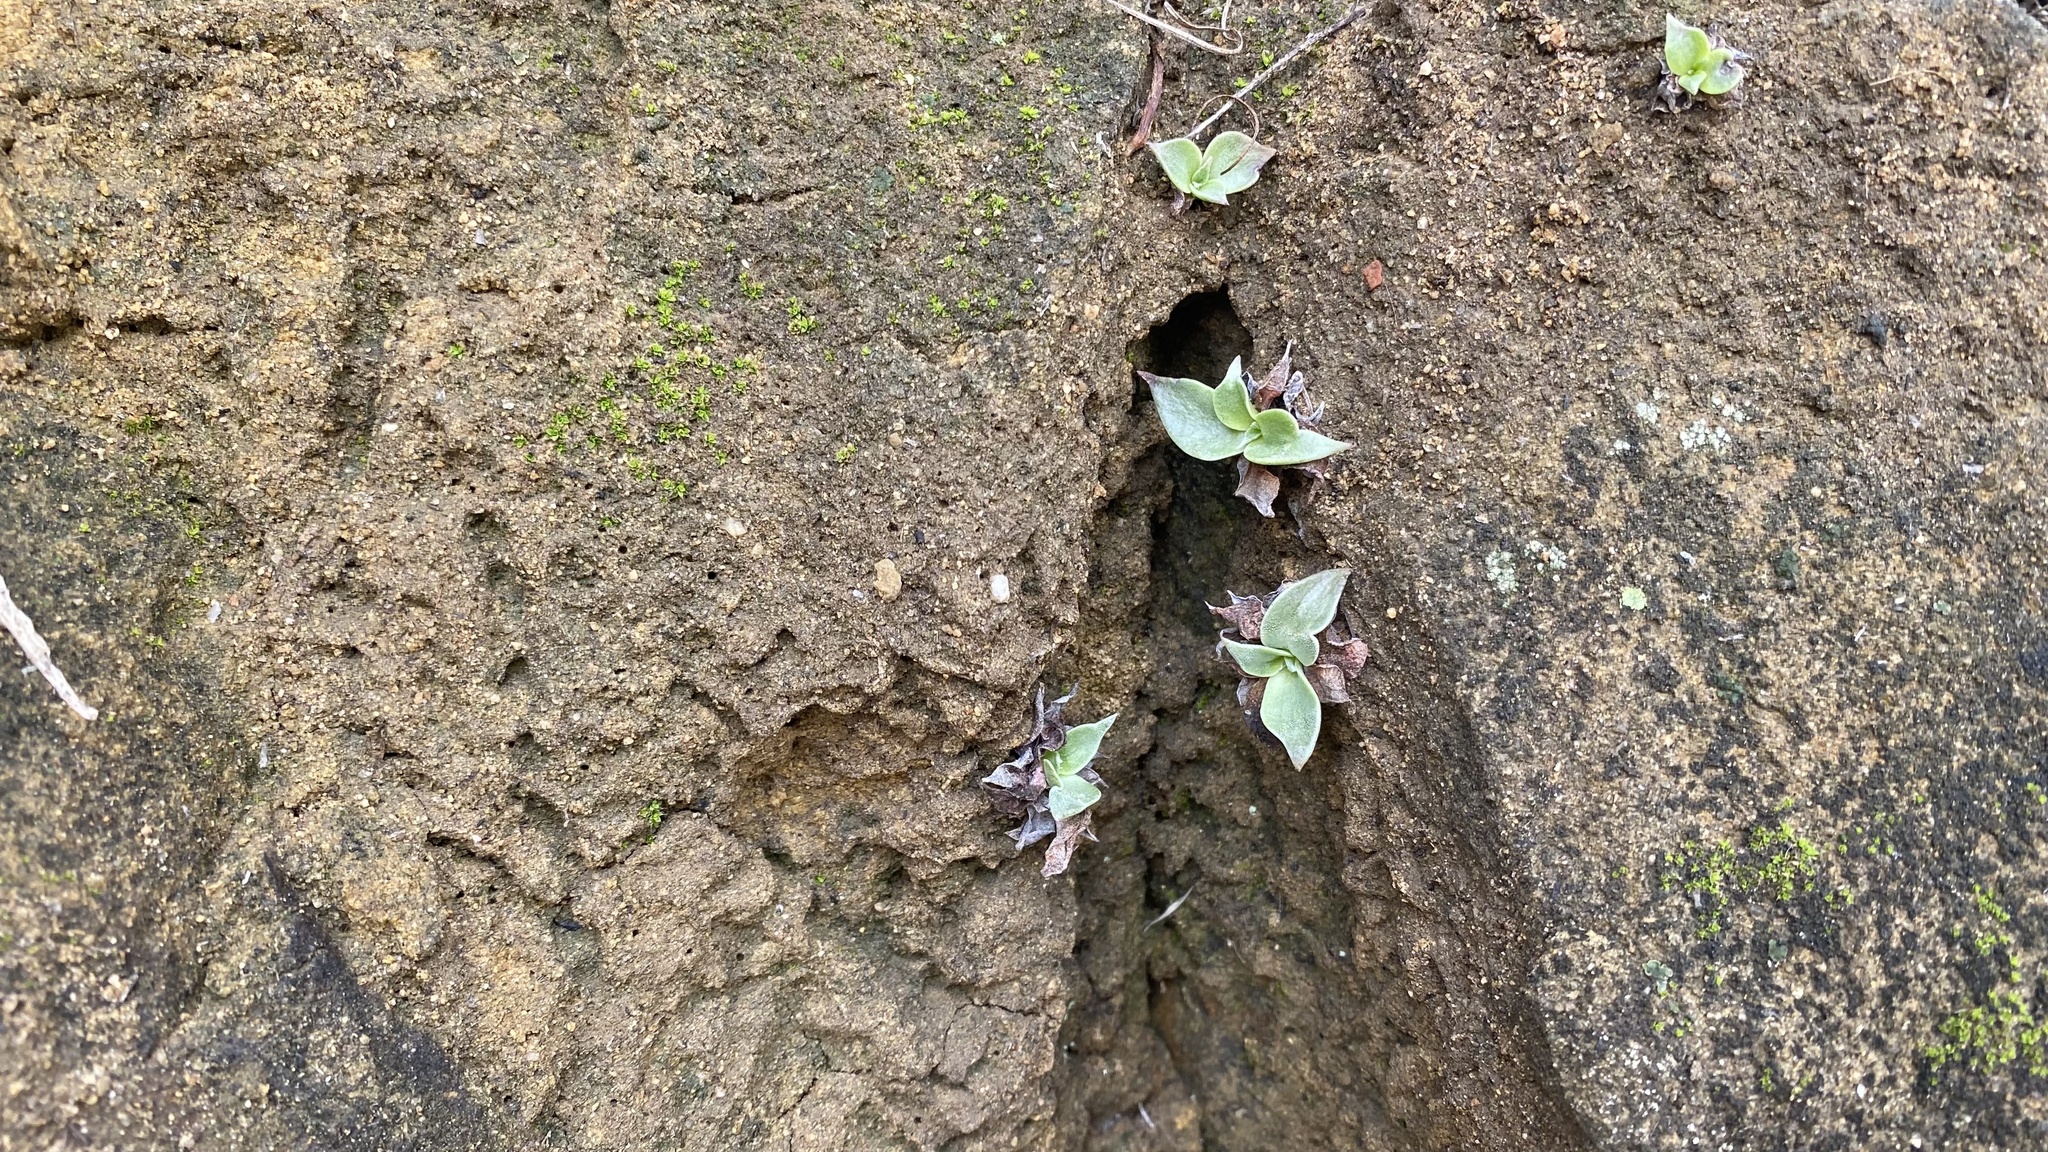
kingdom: Plantae
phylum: Tracheophyta
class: Magnoliopsida
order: Saxifragales
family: Crassulaceae
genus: Dudleya
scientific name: Dudleya pulverulenta
